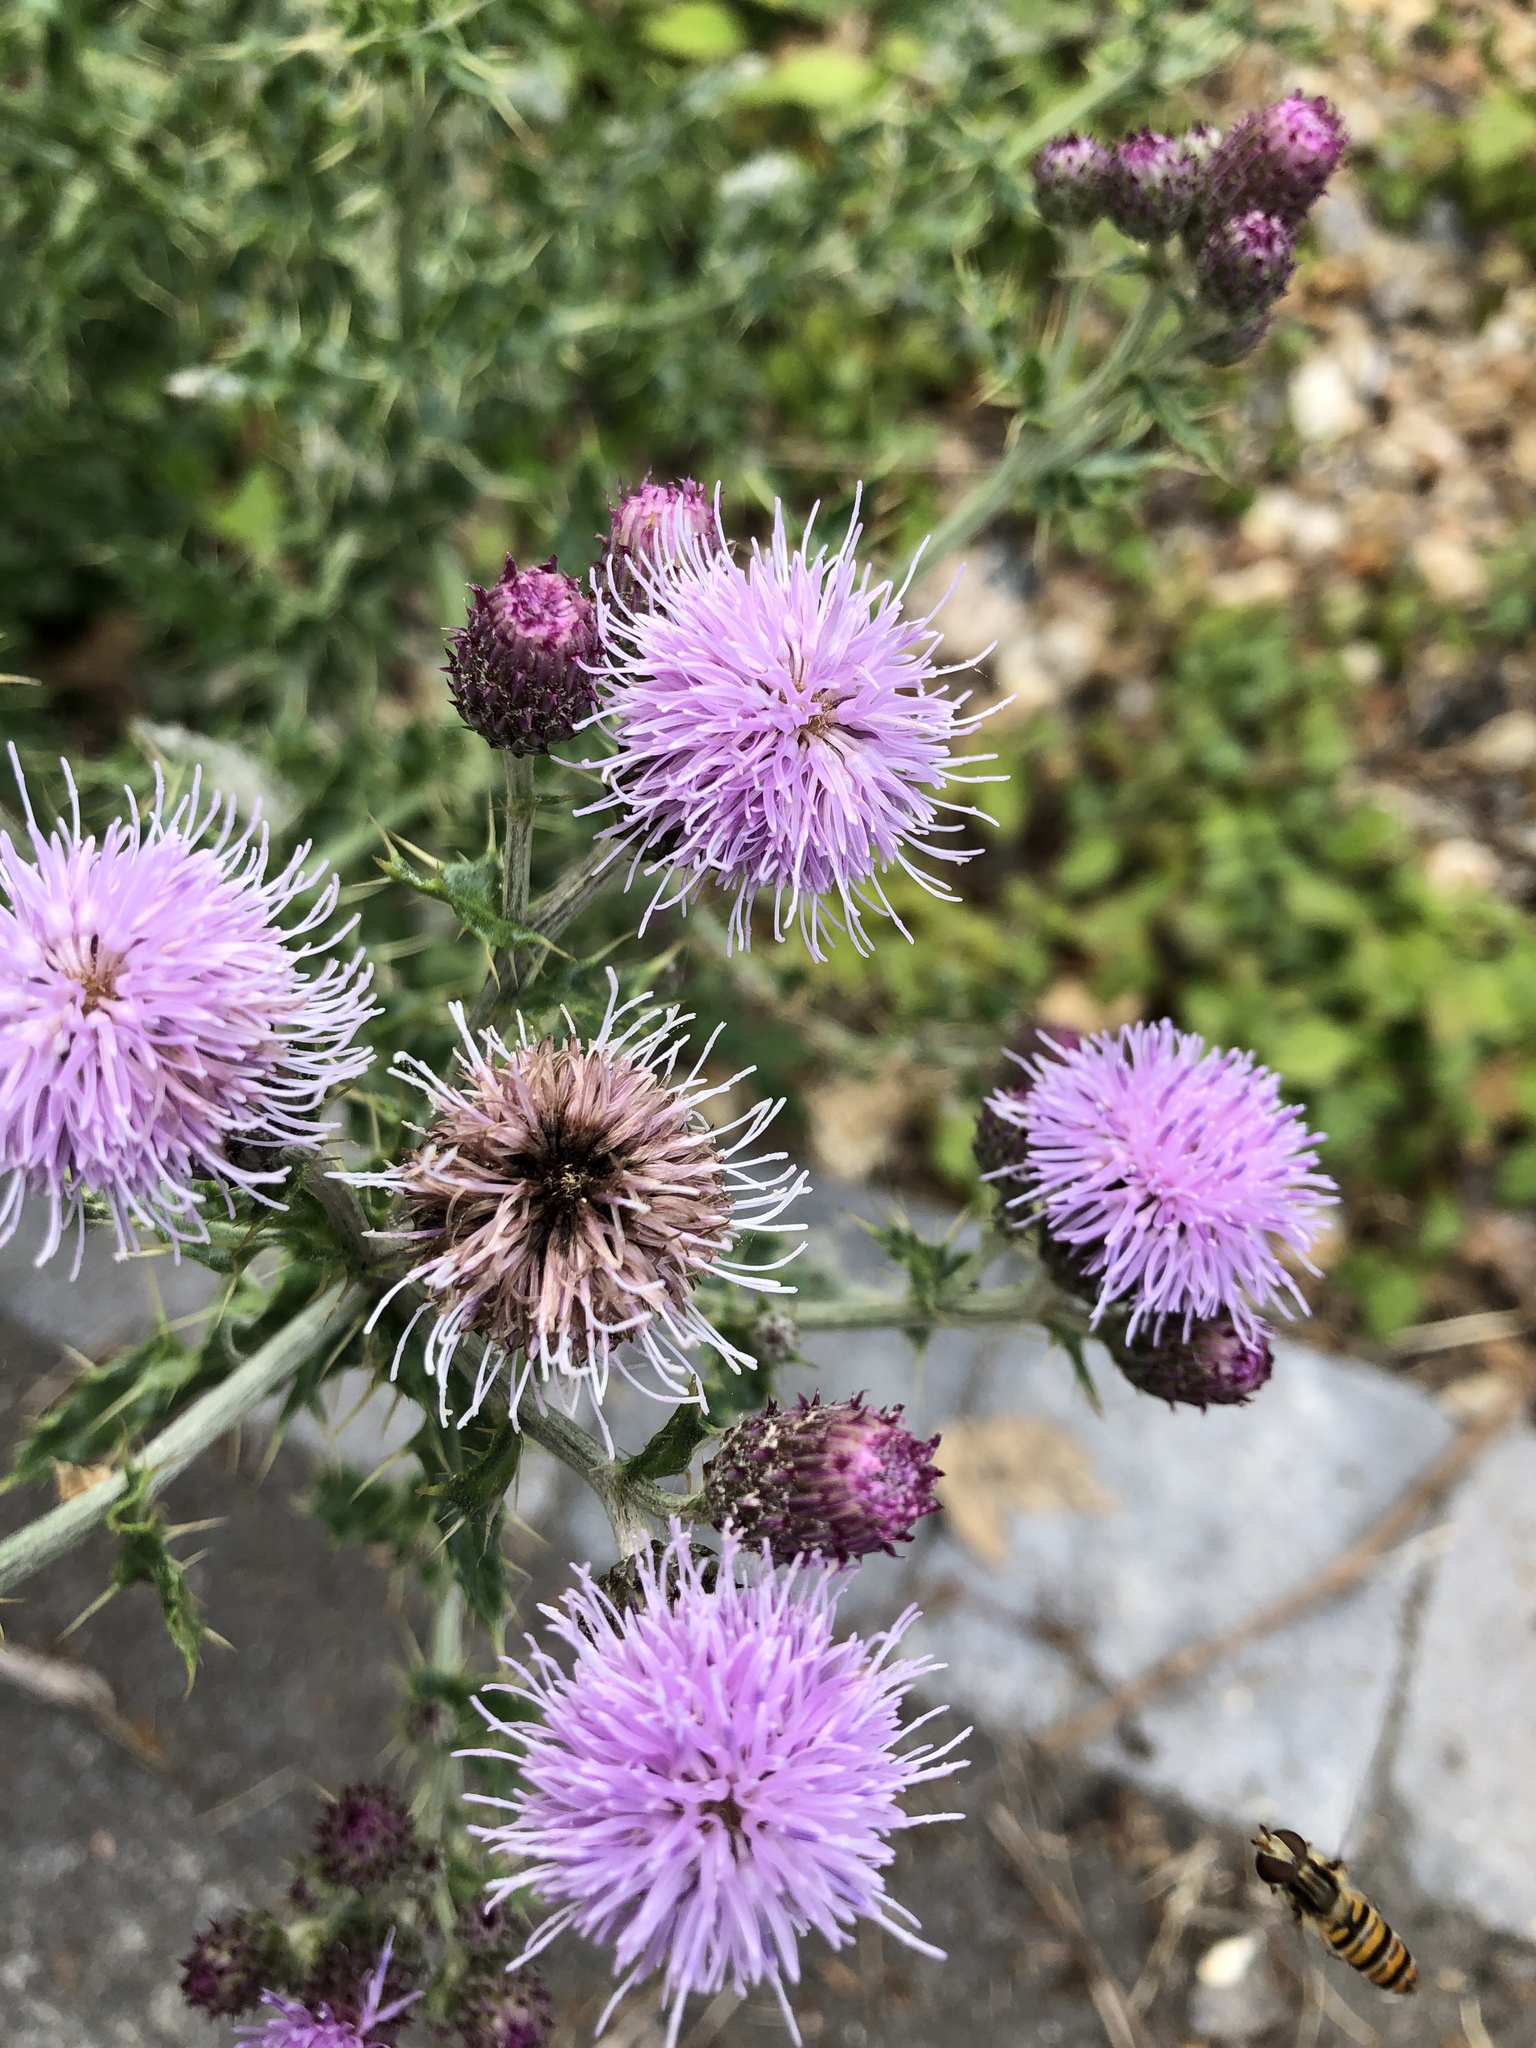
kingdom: Plantae
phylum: Tracheophyta
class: Magnoliopsida
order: Asterales
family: Asteraceae
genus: Cirsium
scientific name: Cirsium arvense
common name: Creeping thistle
